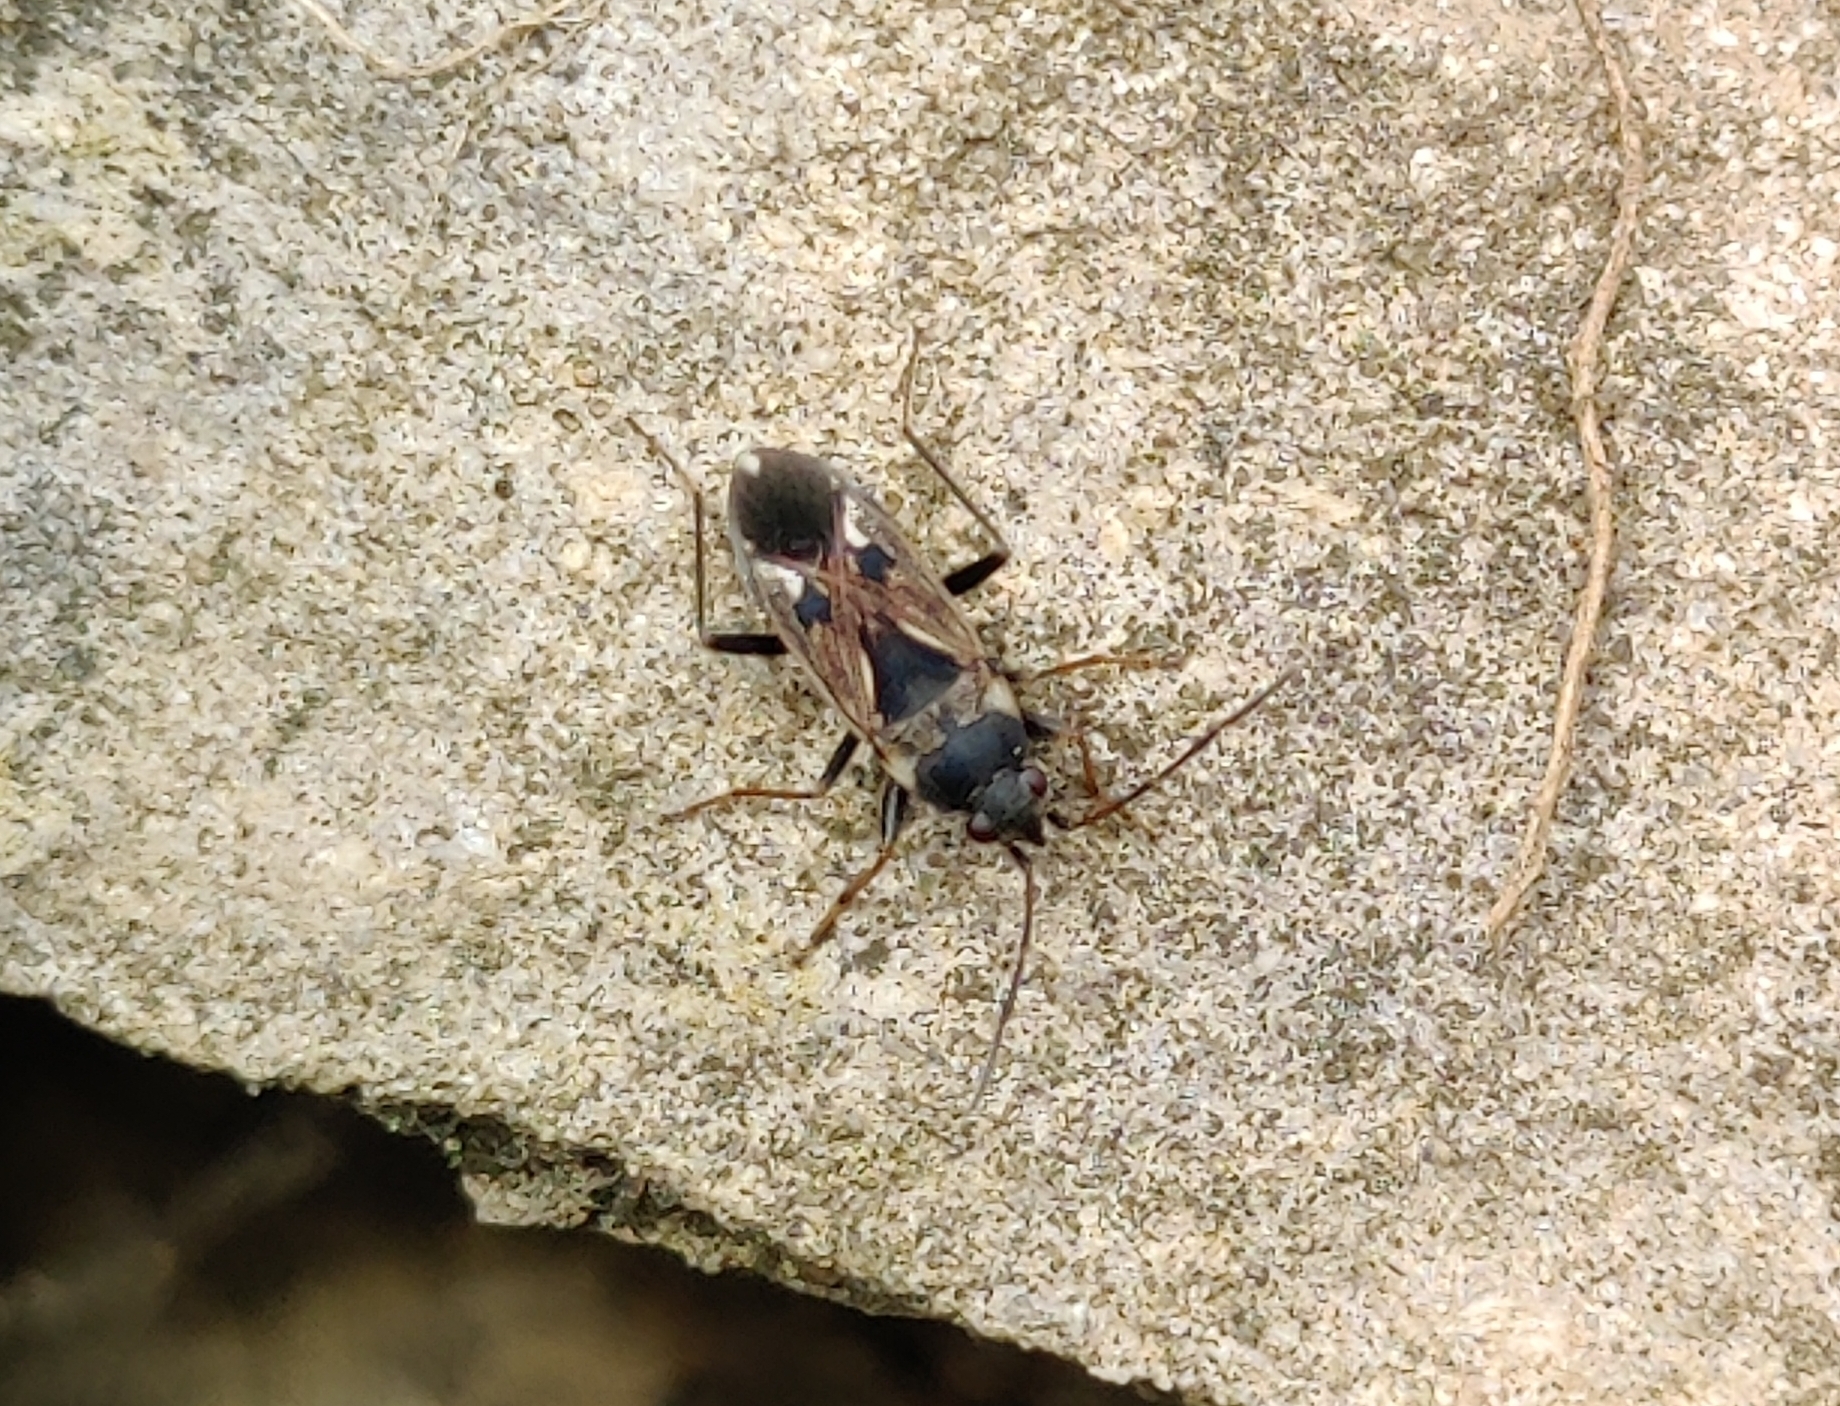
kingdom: Animalia
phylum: Arthropoda
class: Insecta
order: Hemiptera
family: Rhyparochromidae
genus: Rhyparochromus
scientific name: Rhyparochromus vulgaris
